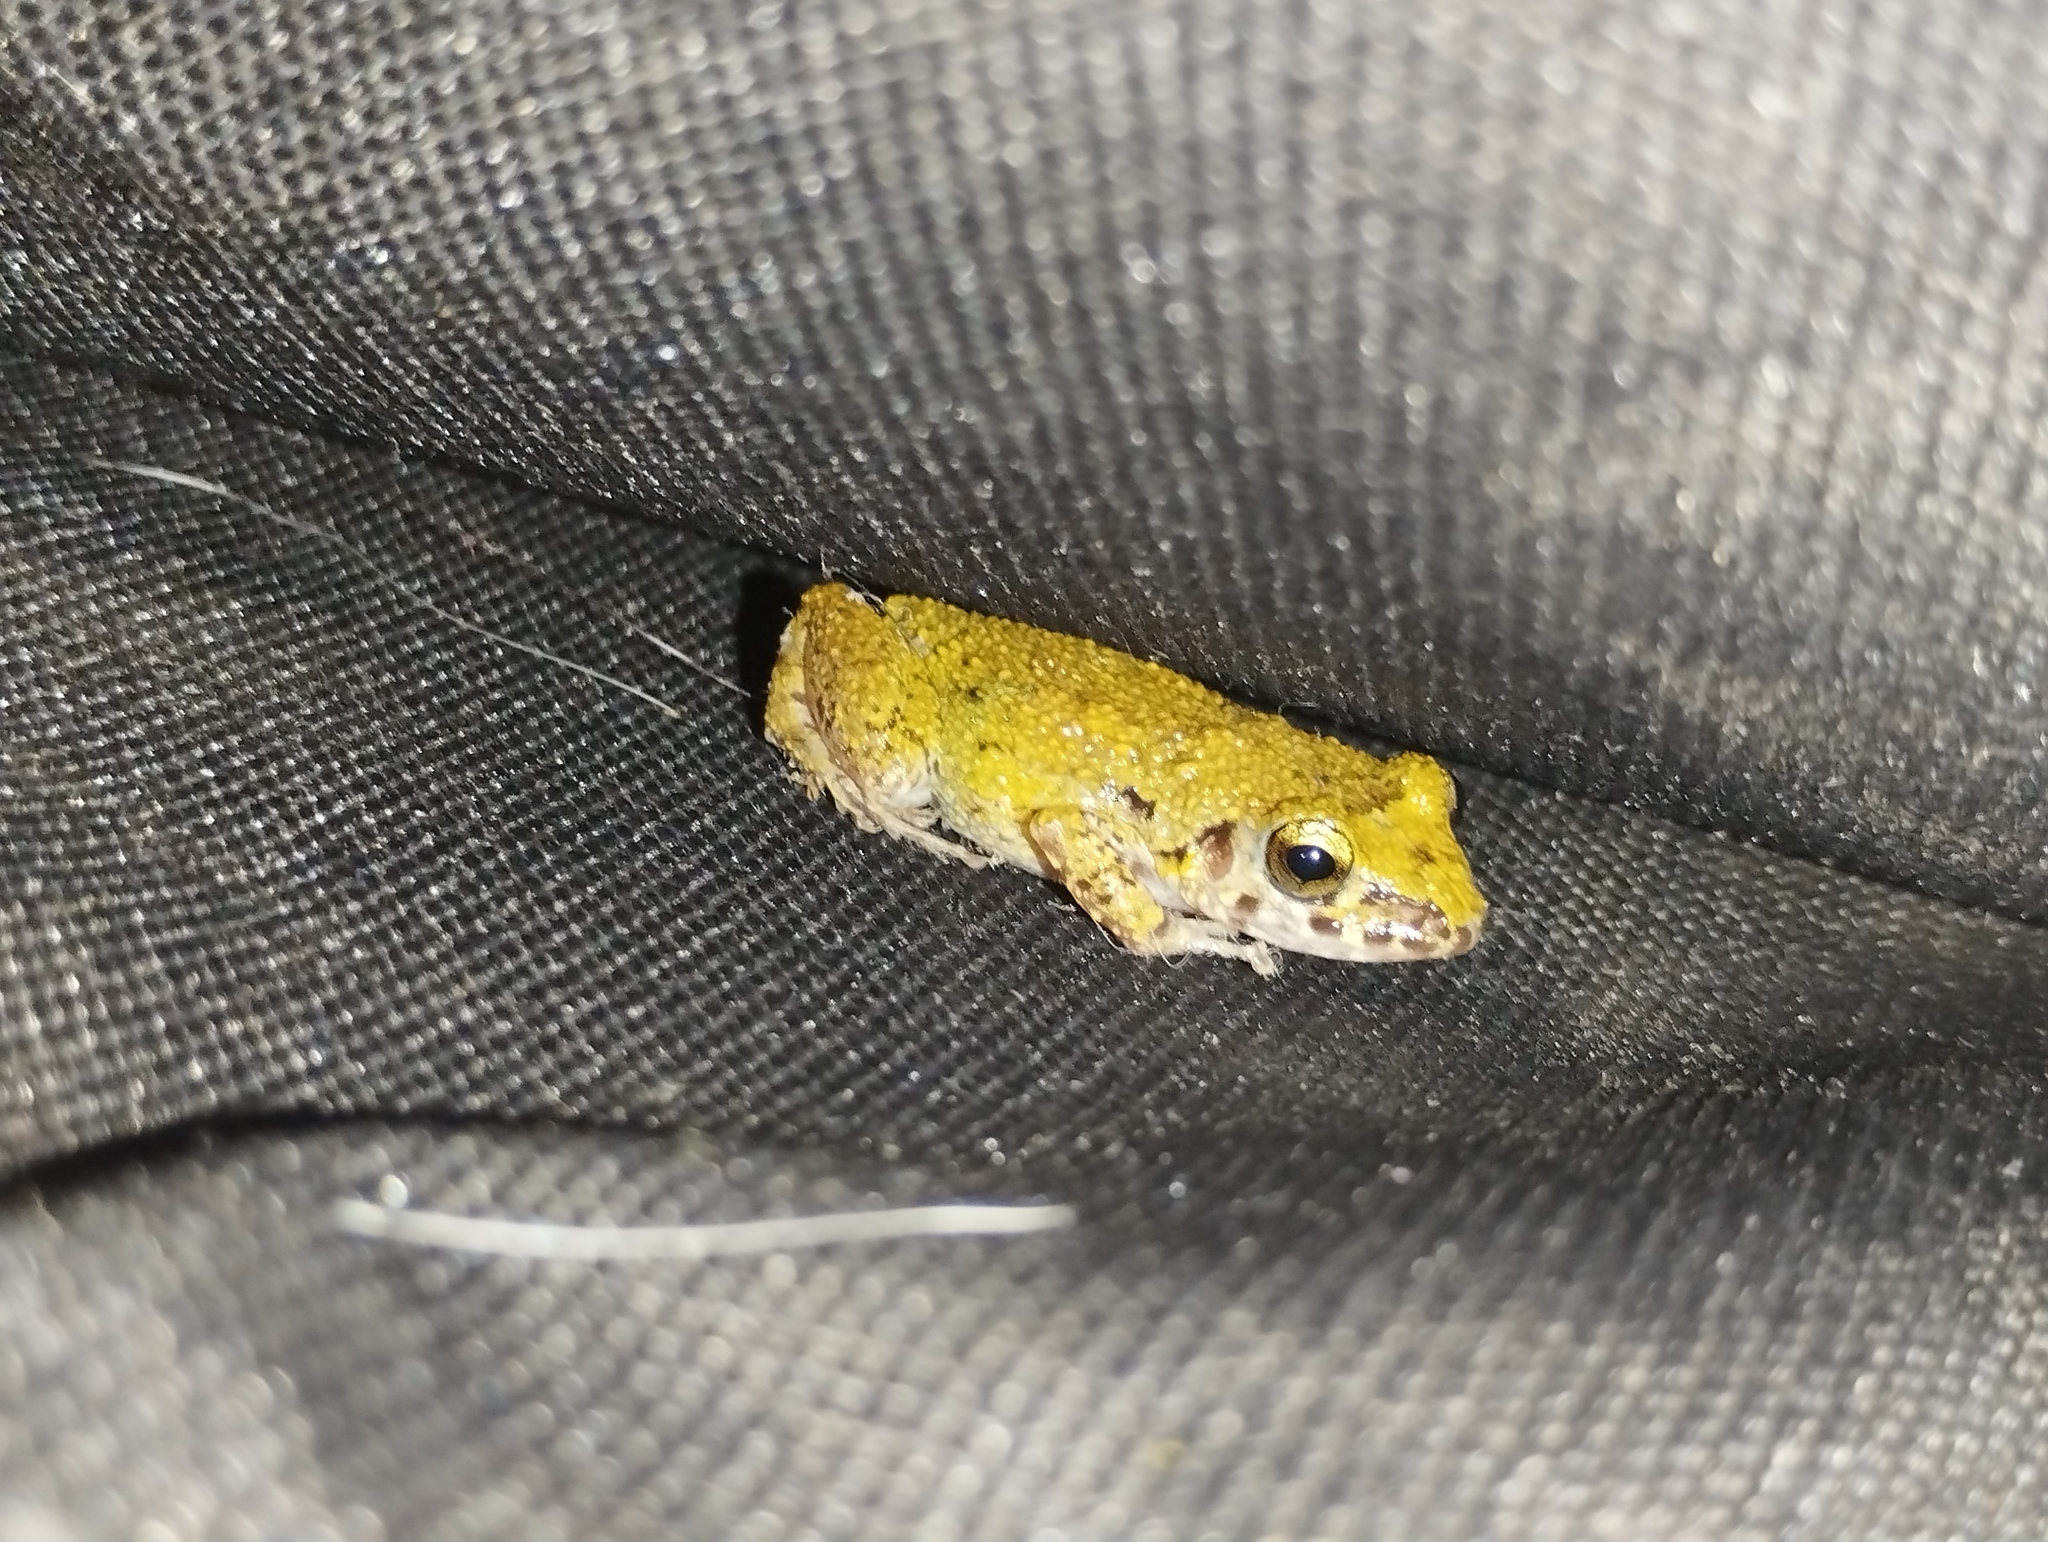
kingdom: Animalia
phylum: Chordata
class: Amphibia
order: Anura
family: Eleutherodactylidae
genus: Eleutherodactylus
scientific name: Eleutherodactylus planirostris
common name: Greenhouse frog
